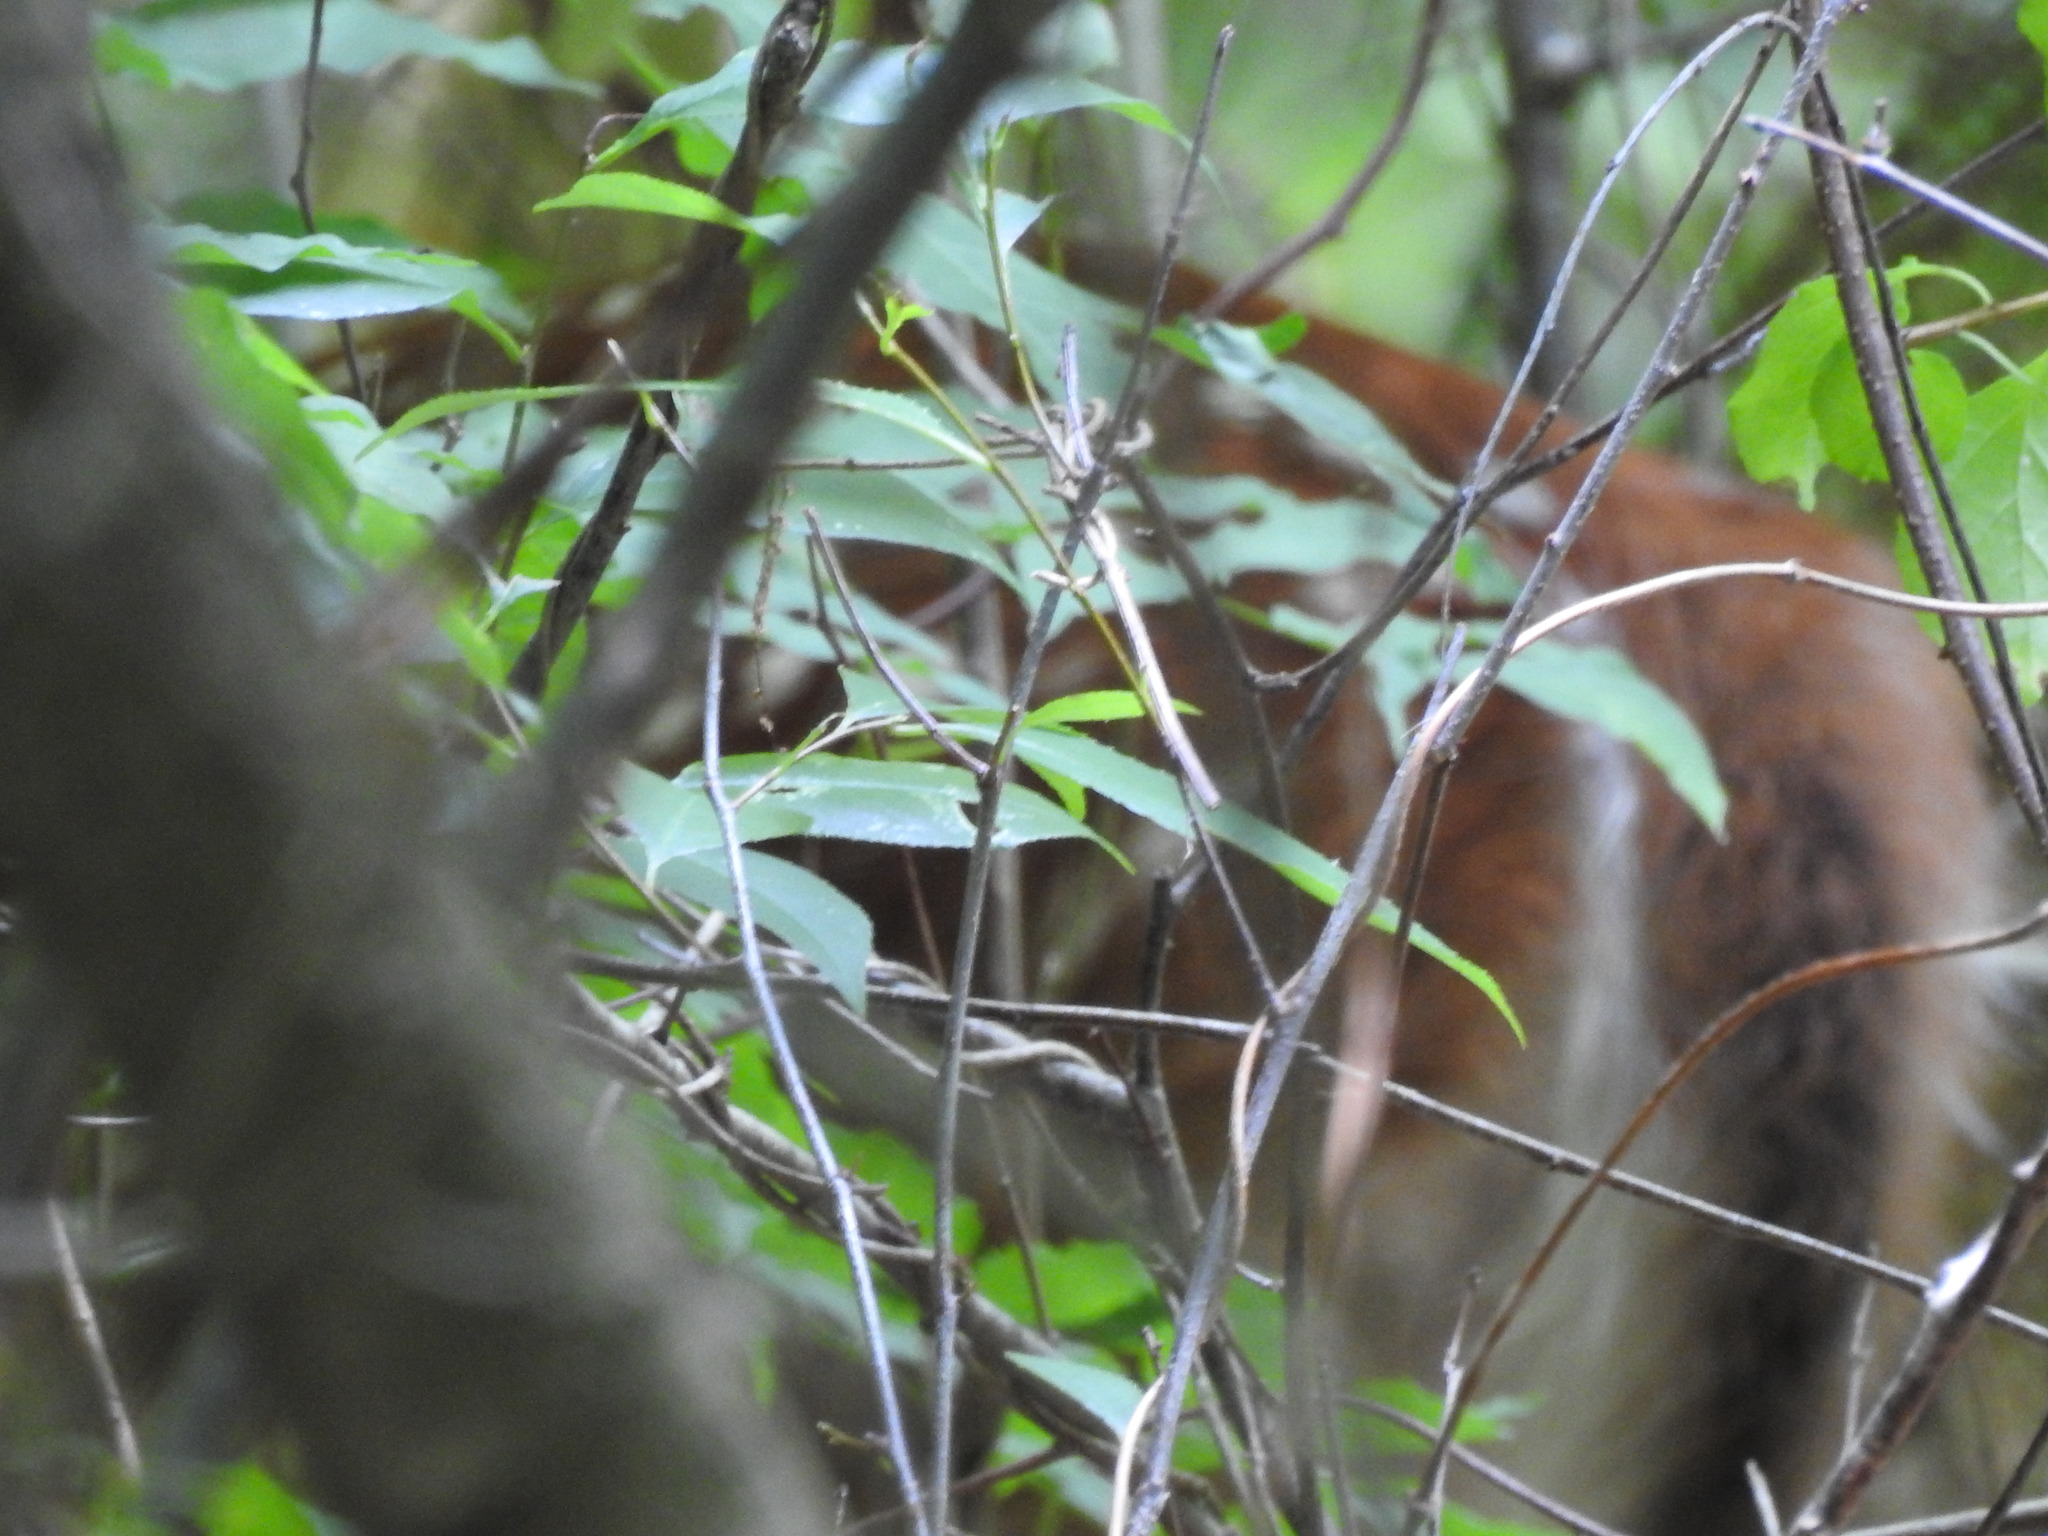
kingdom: Animalia
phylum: Chordata
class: Mammalia
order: Artiodactyla
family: Cervidae
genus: Odocoileus
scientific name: Odocoileus virginianus
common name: White-tailed deer
